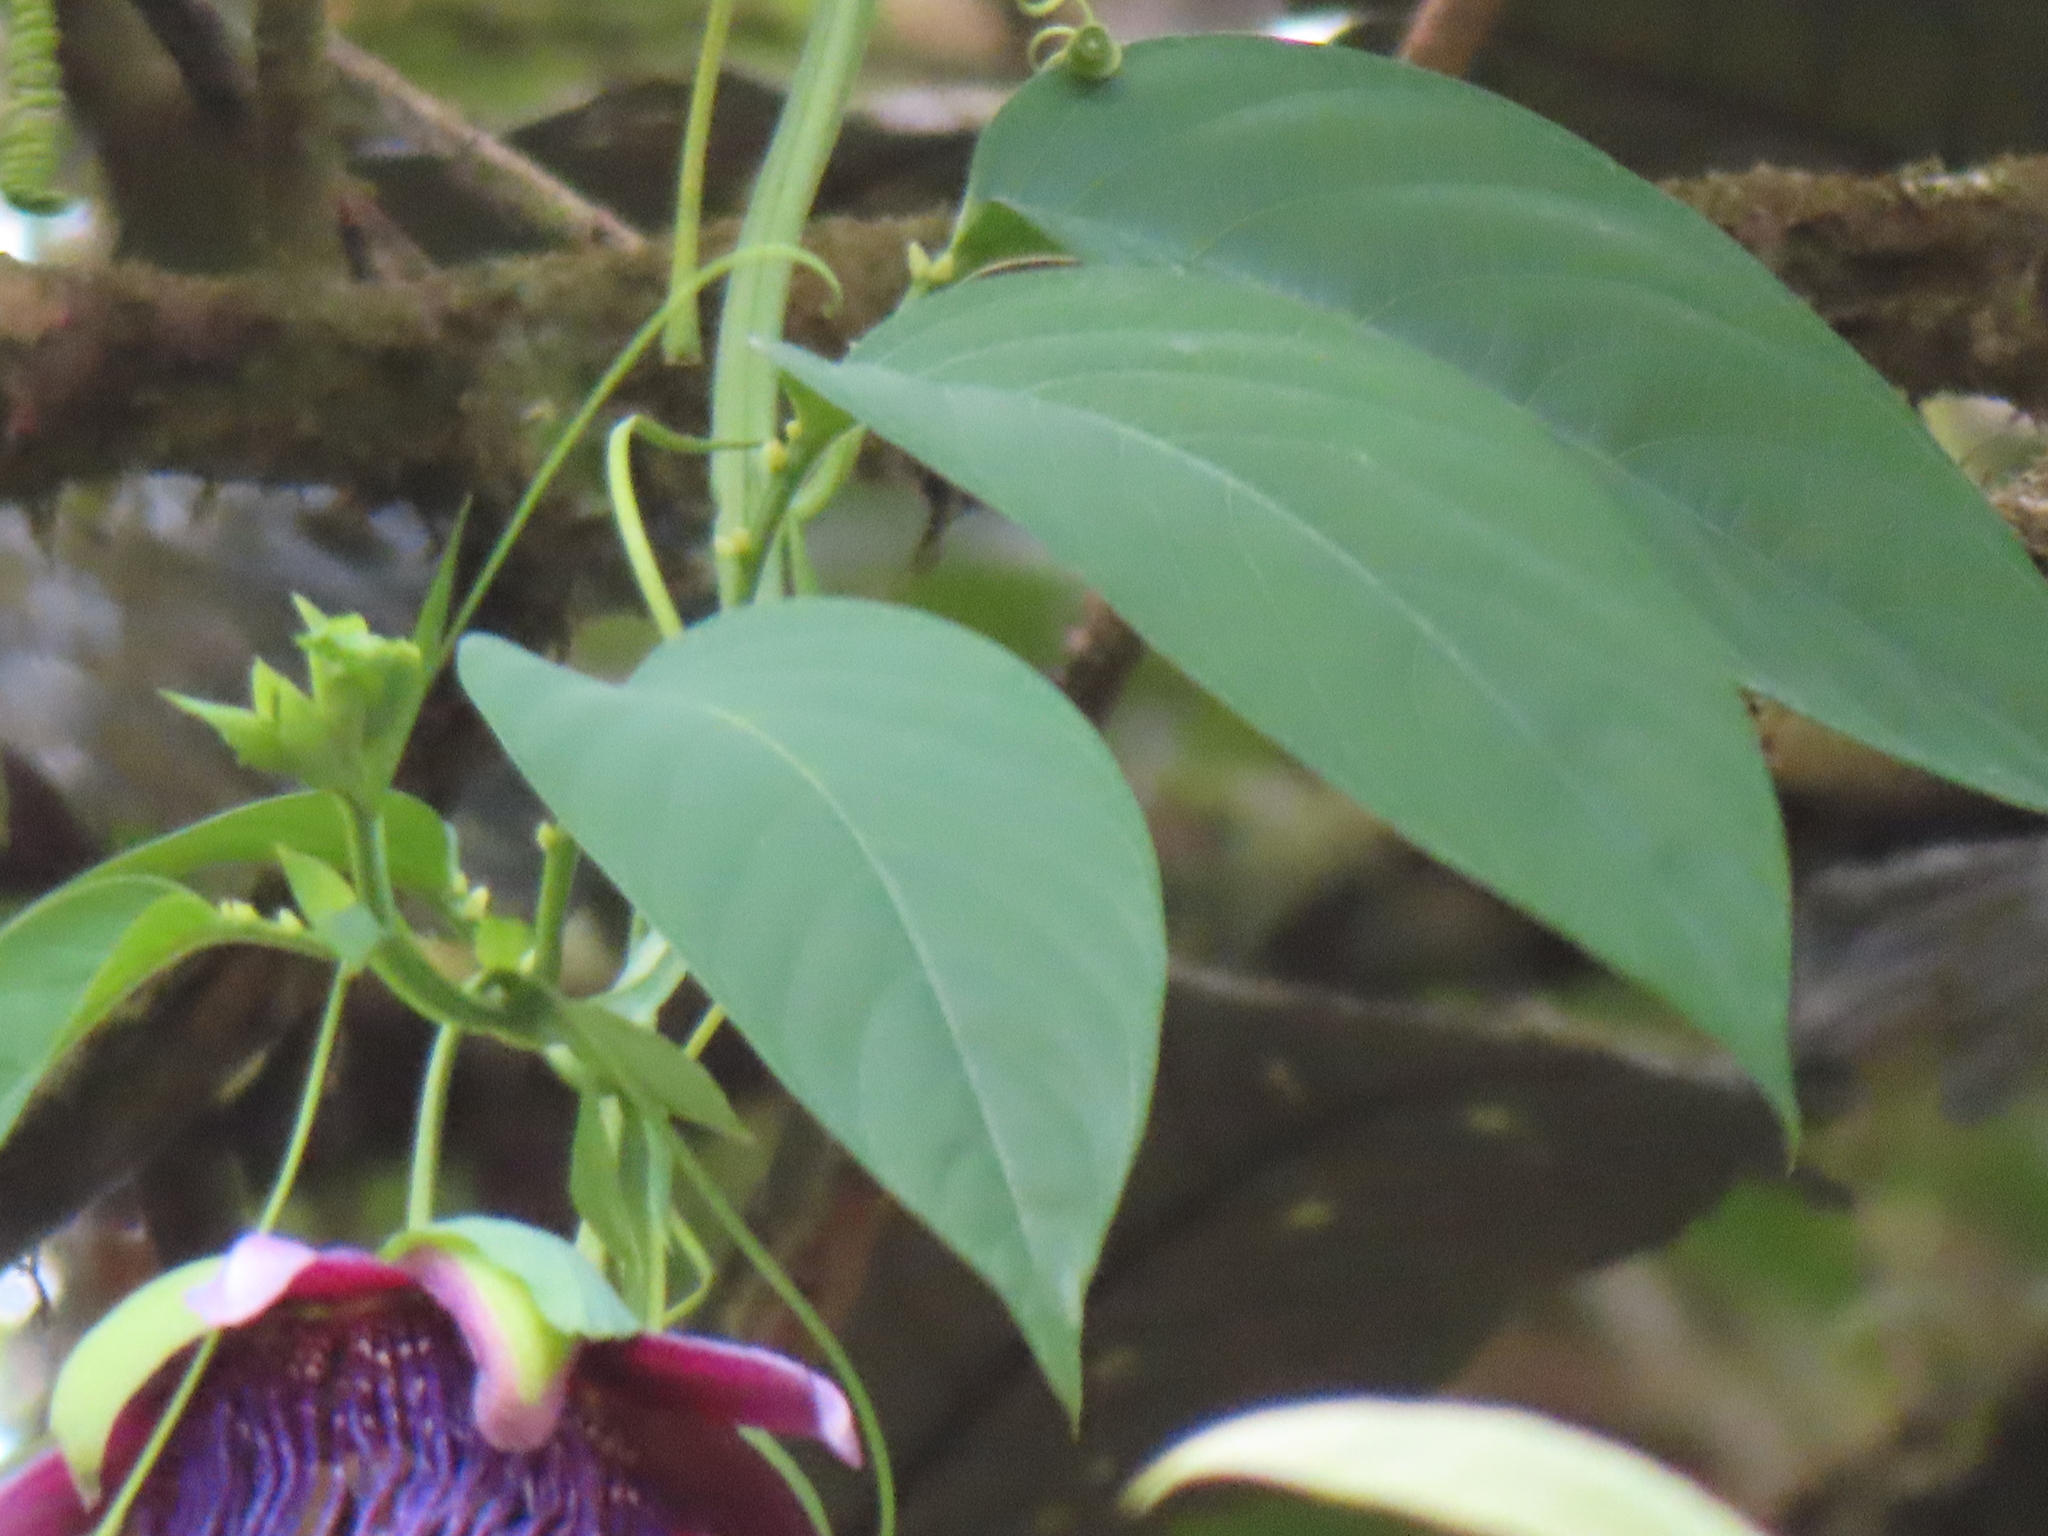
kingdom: Plantae
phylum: Tracheophyta
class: Magnoliopsida
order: Malpighiales
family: Passifloraceae
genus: Passiflora
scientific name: Passiflora quadrangularis
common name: Giant granadilla
